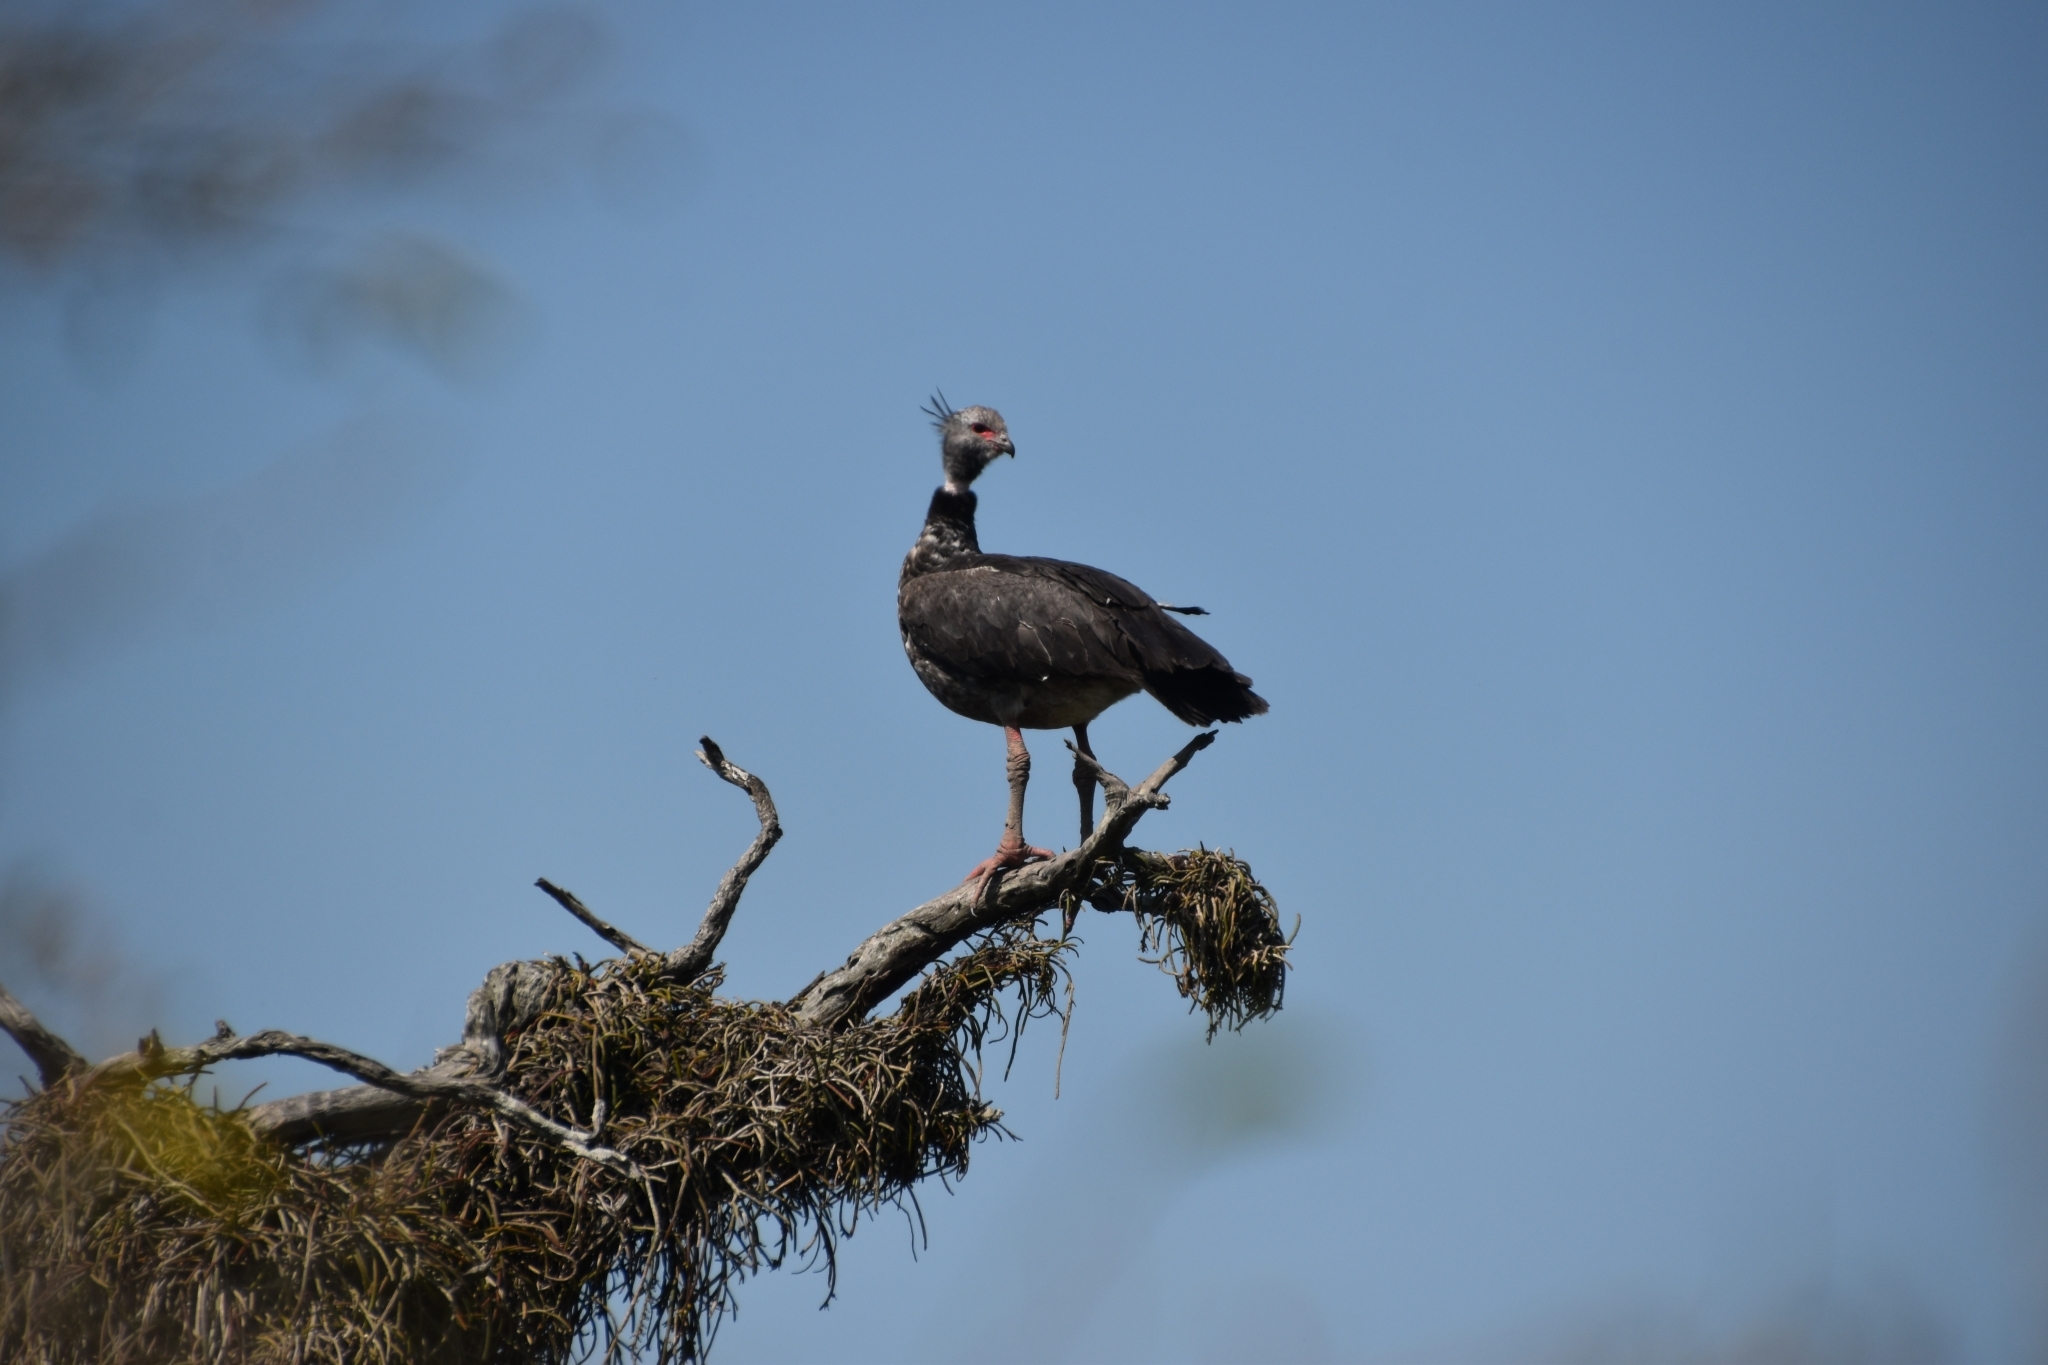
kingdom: Animalia
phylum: Chordata
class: Aves
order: Anseriformes
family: Anhimidae
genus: Chauna
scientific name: Chauna torquata
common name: Southern screamer
